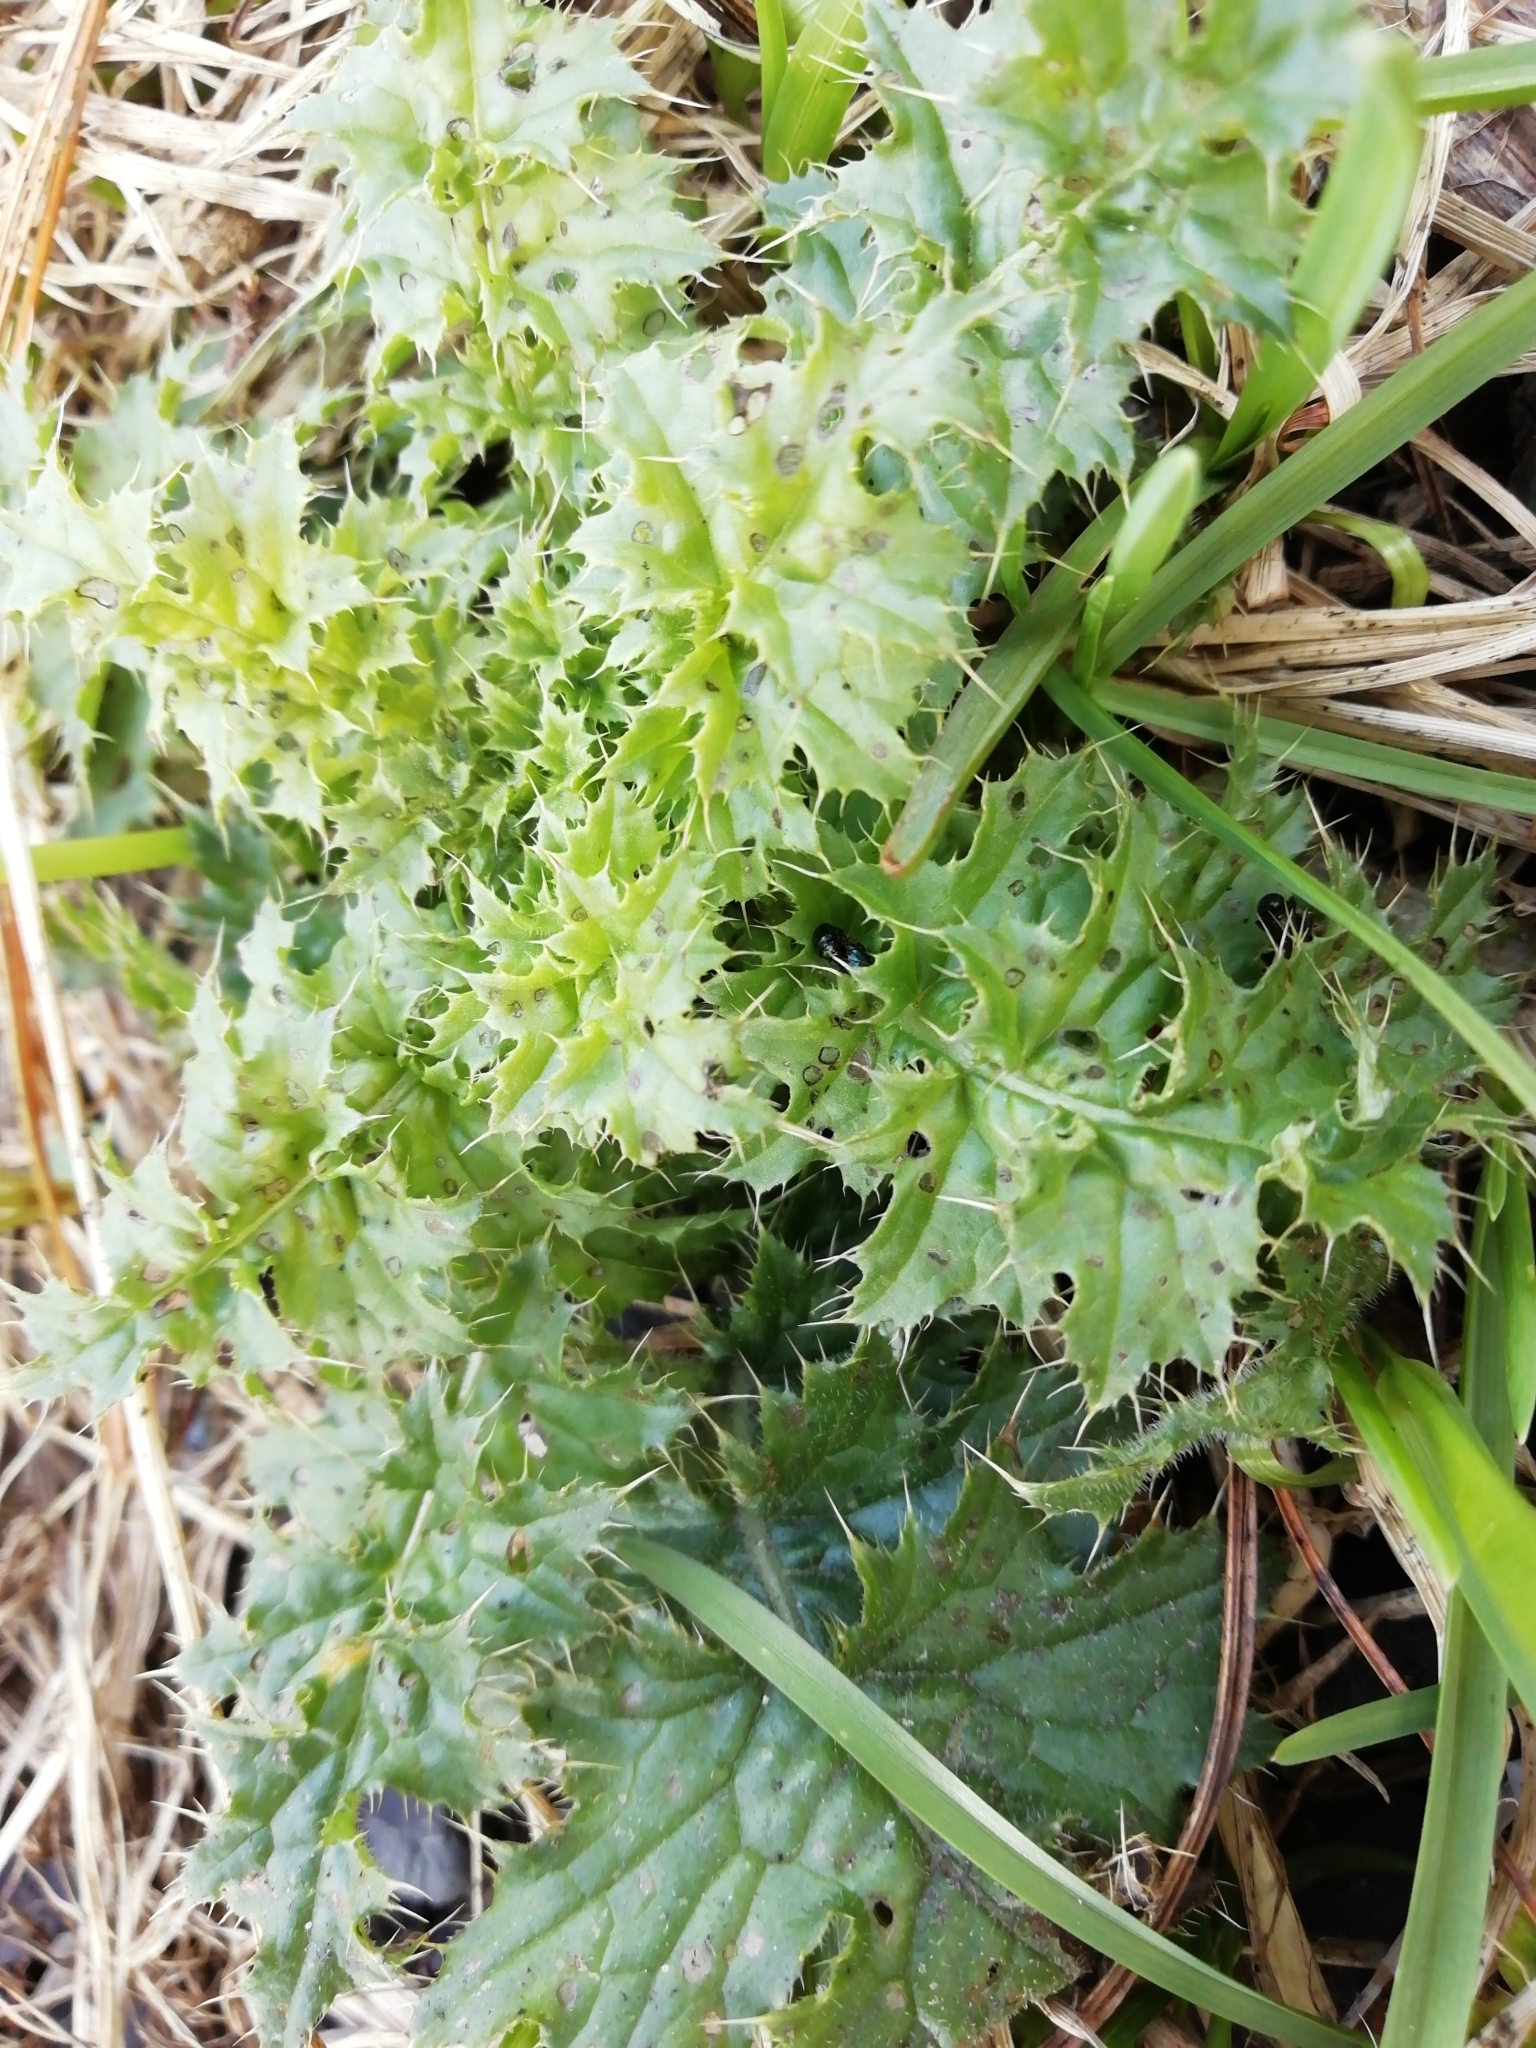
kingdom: Plantae
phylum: Tracheophyta
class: Magnoliopsida
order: Asterales
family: Asteraceae
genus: Carduus
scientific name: Carduus nutans
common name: Musk thistle
